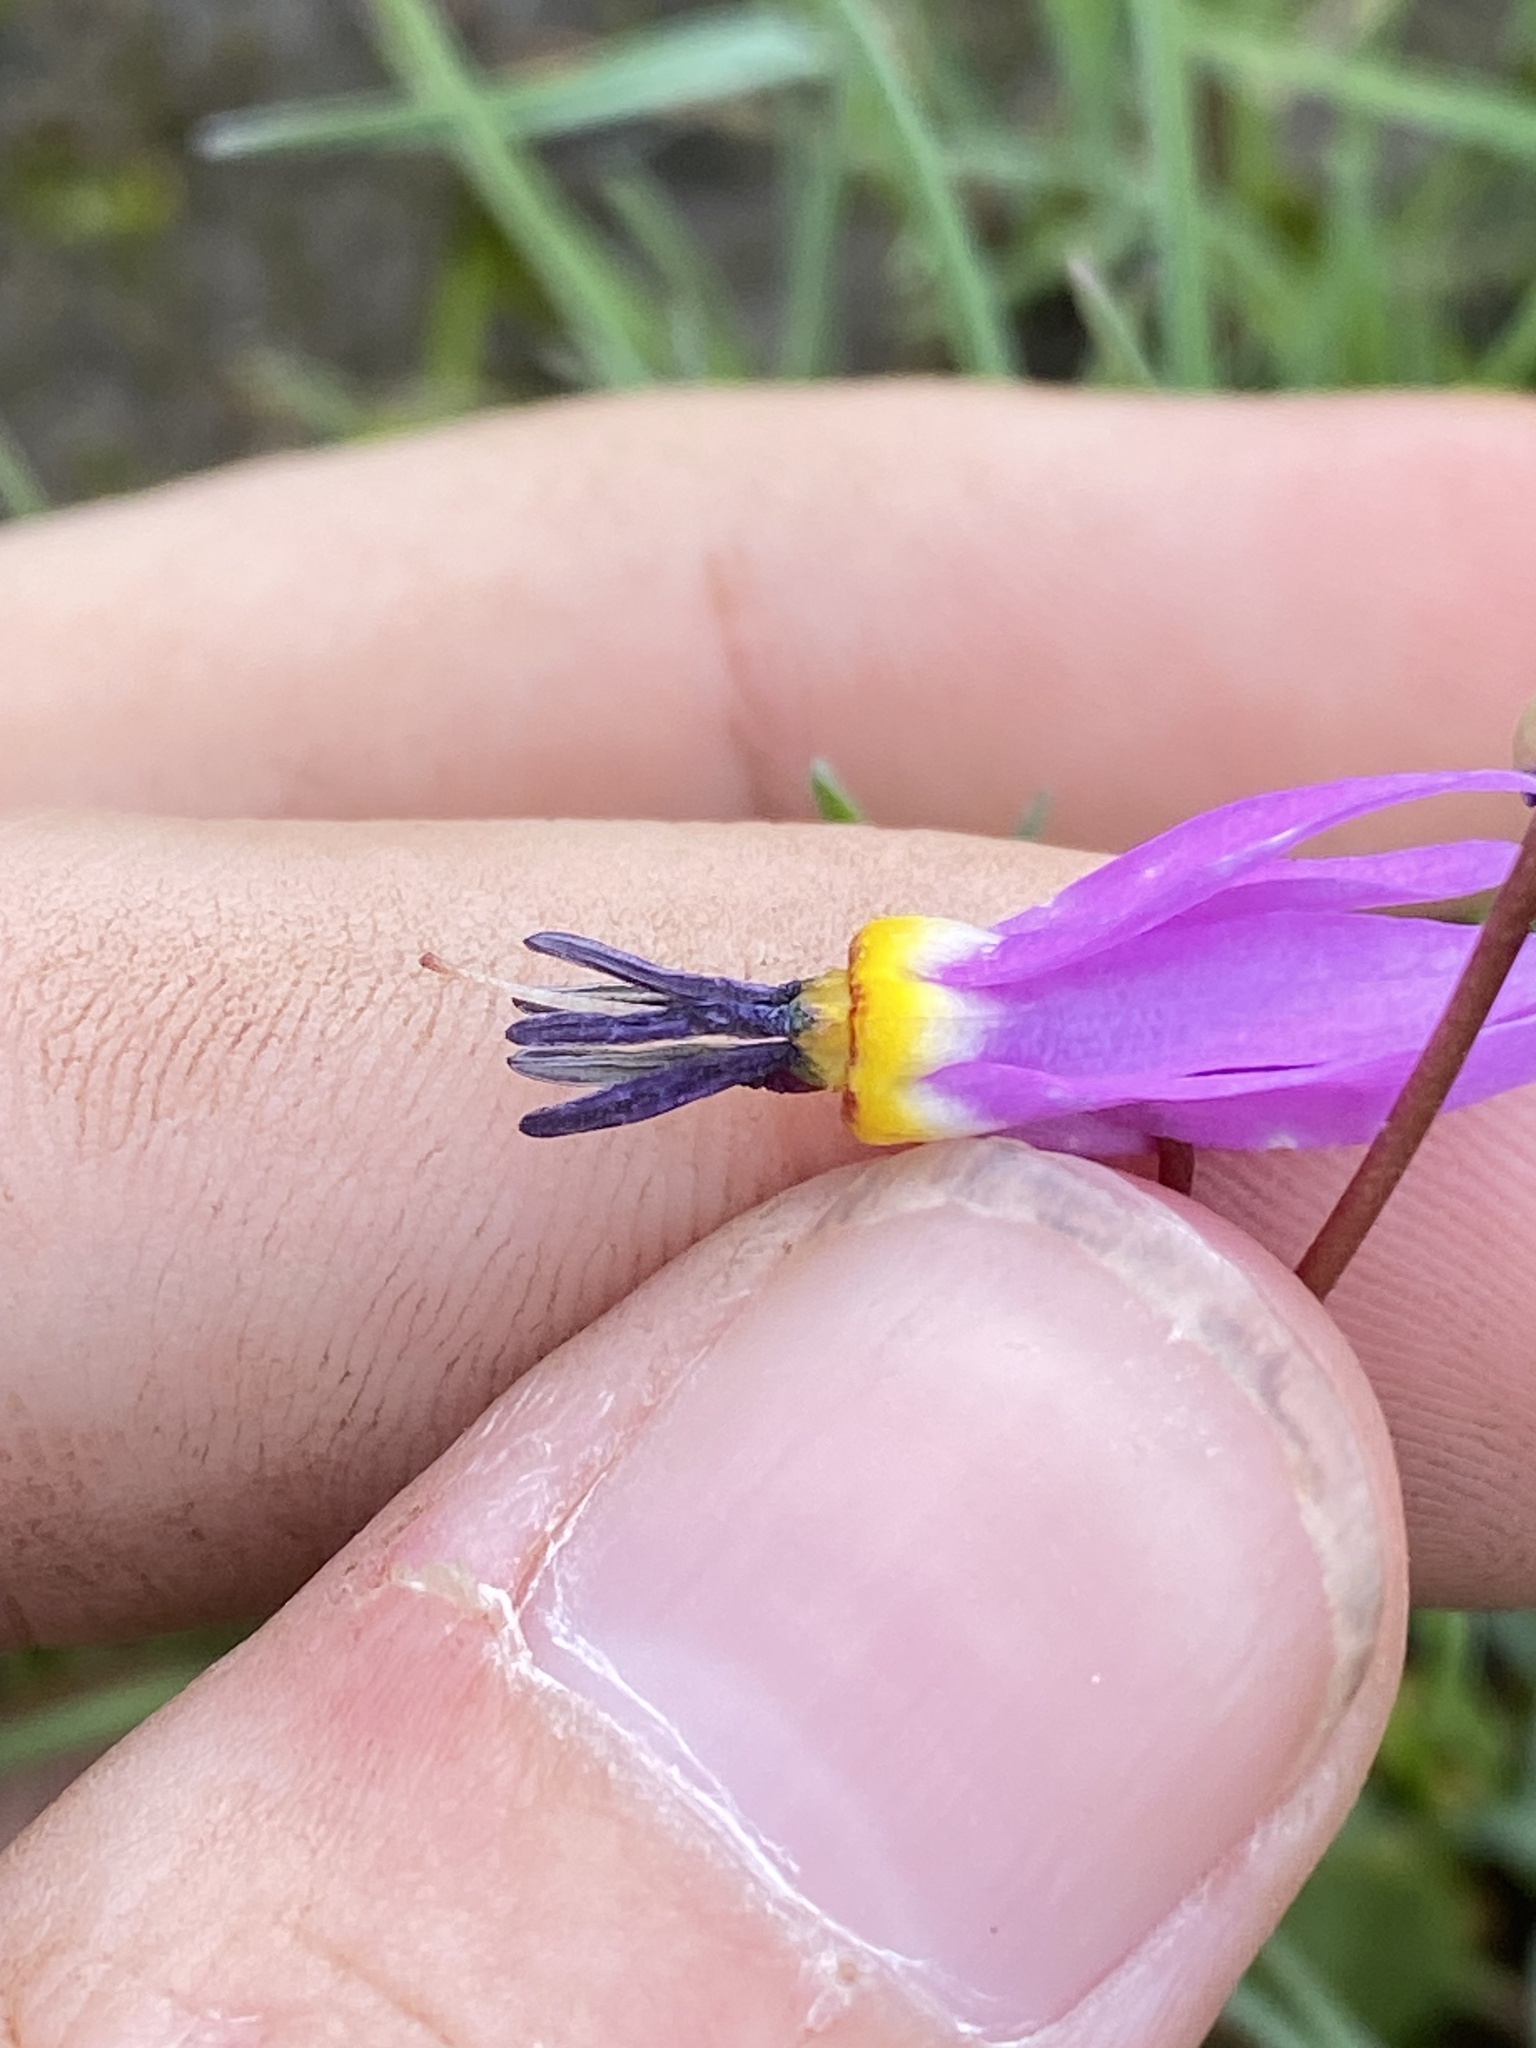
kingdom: Plantae
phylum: Tracheophyta
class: Magnoliopsida
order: Ericales
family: Primulaceae
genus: Dodecatheon
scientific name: Dodecatheon conjugens
